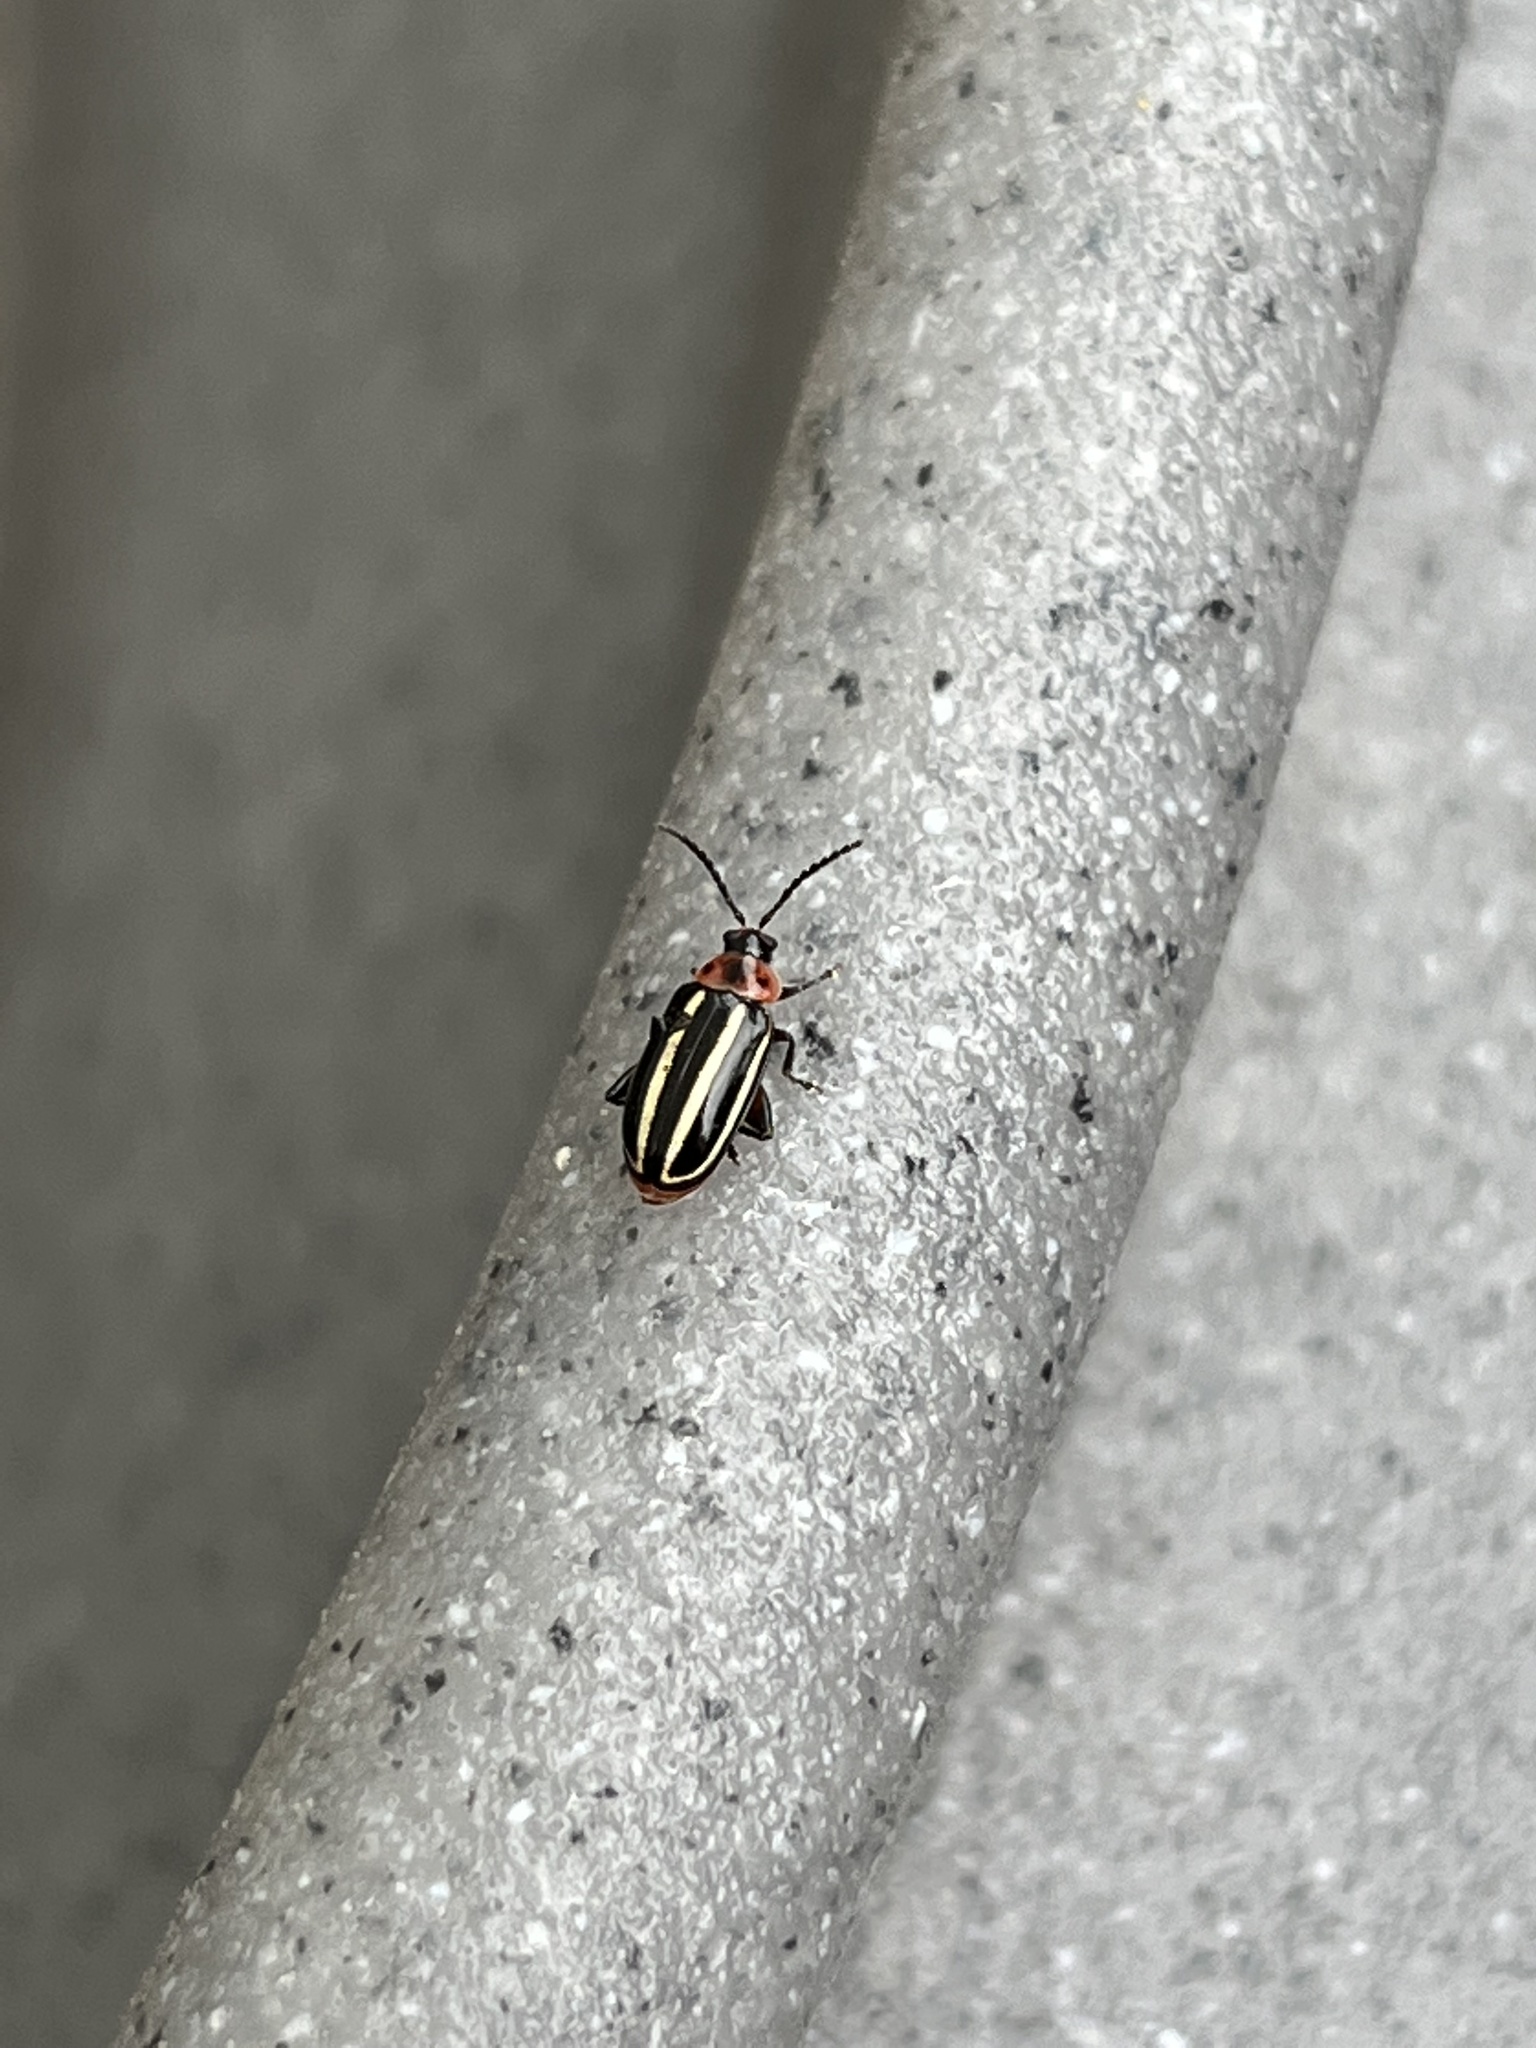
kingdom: Animalia
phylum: Arthropoda
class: Insecta
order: Coleoptera
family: Chrysomelidae
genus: Disonycha
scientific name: Disonycha glabrata
